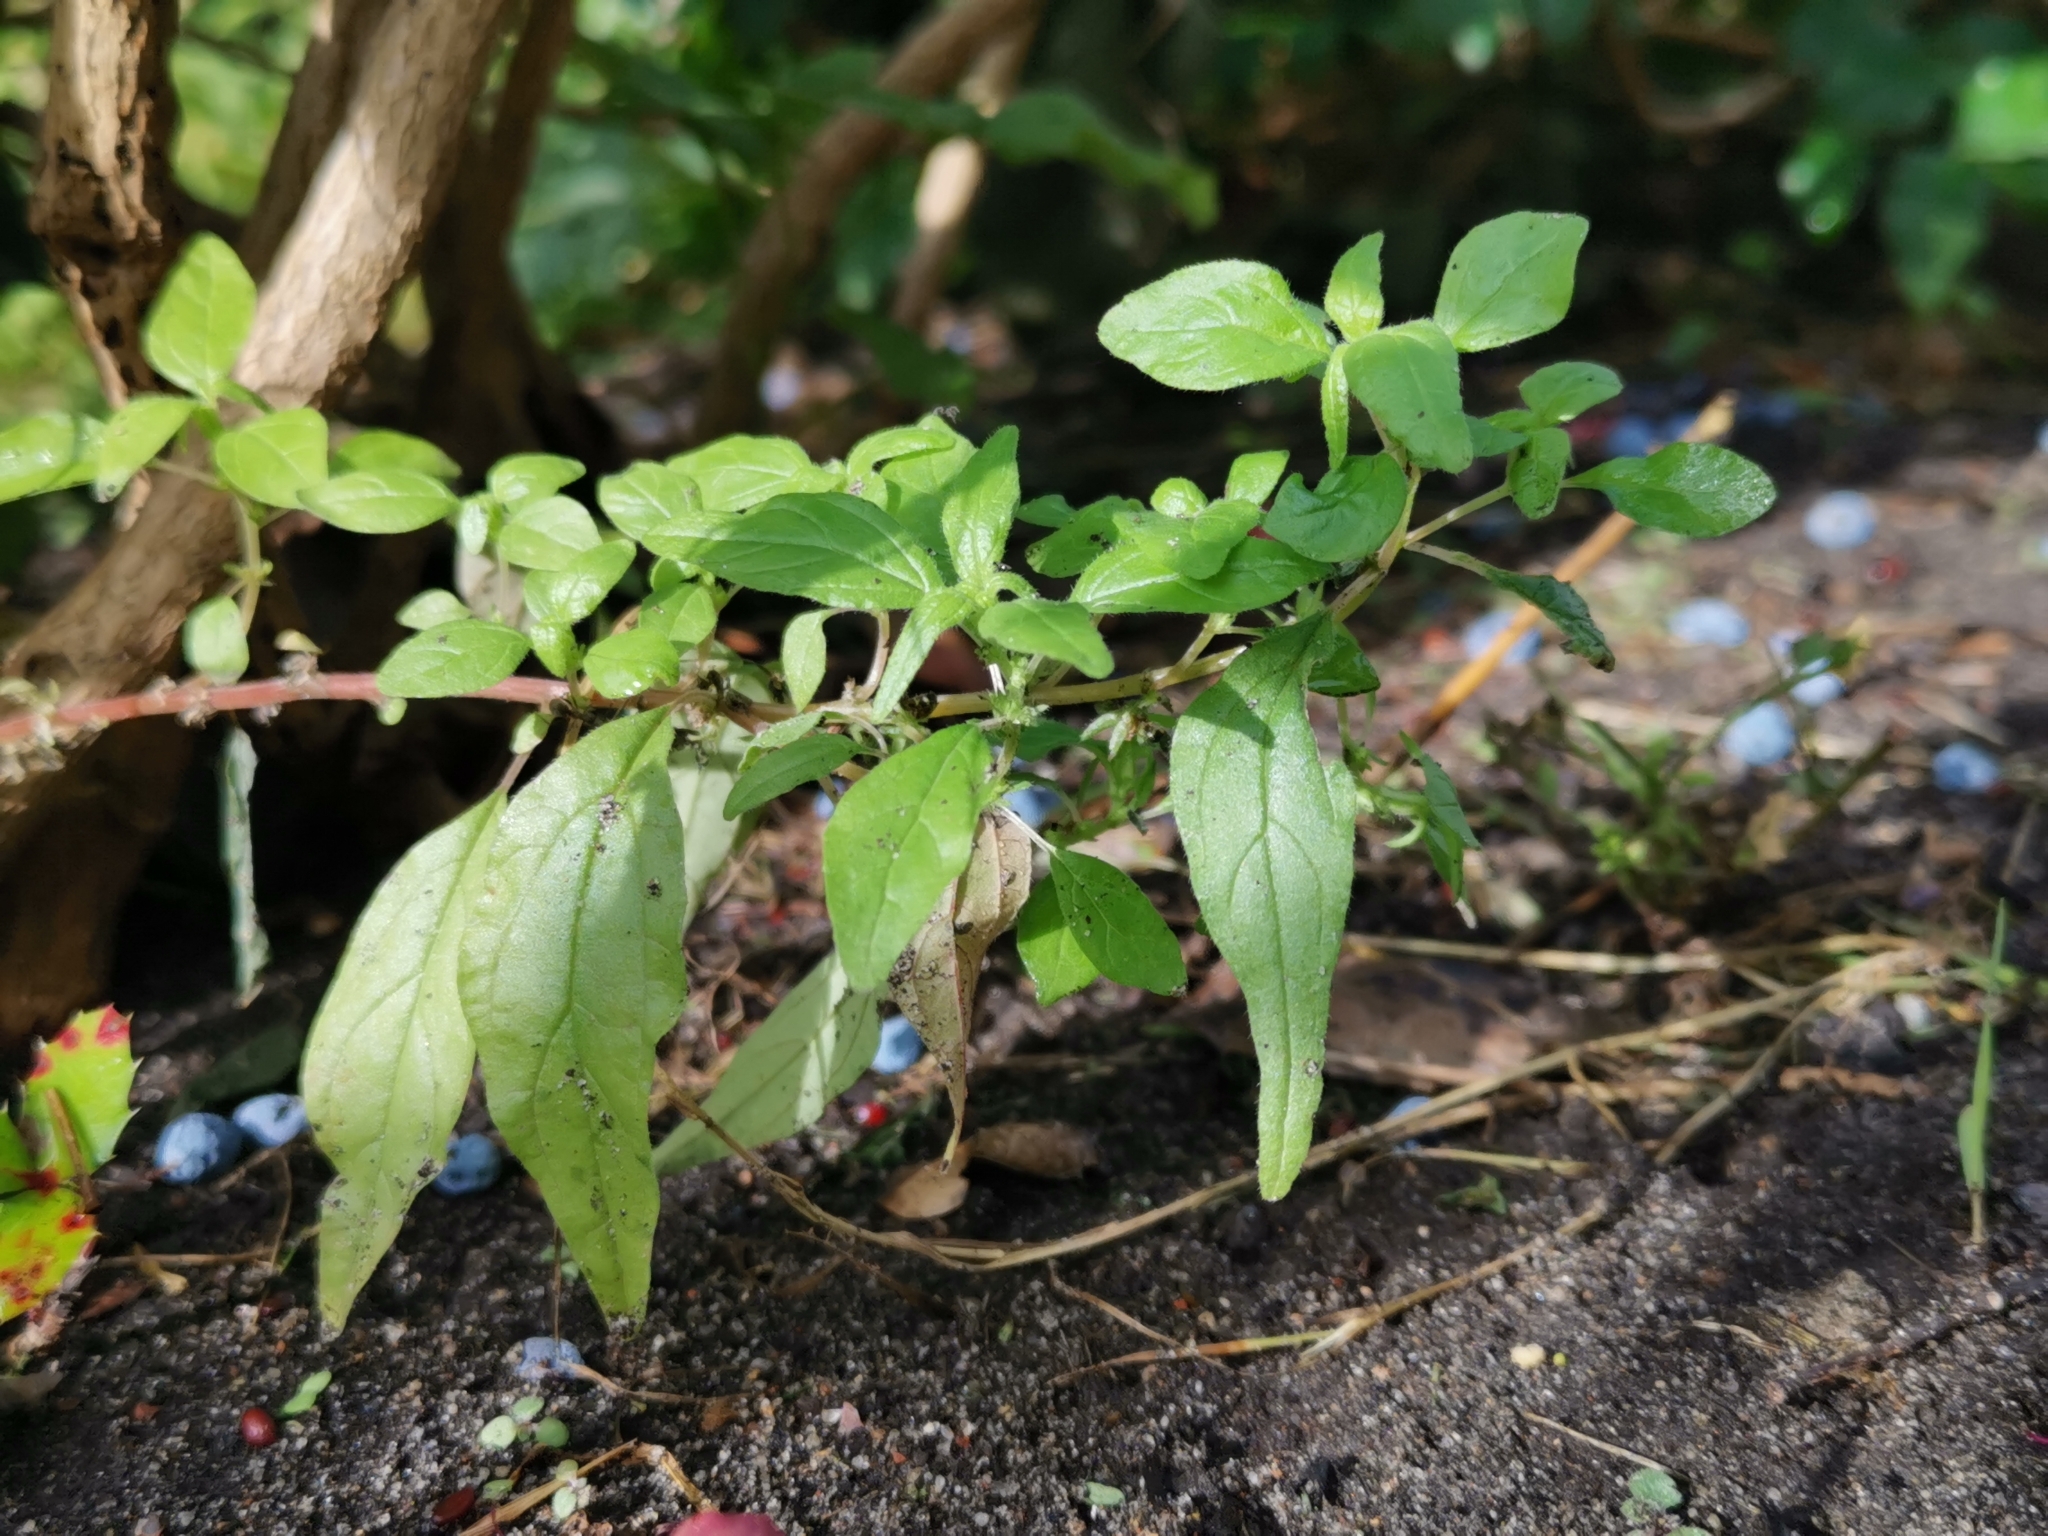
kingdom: Plantae
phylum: Tracheophyta
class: Magnoliopsida
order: Rosales
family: Urticaceae
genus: Parietaria
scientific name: Parietaria pensylvanica
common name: Pennsylvania pellitory
